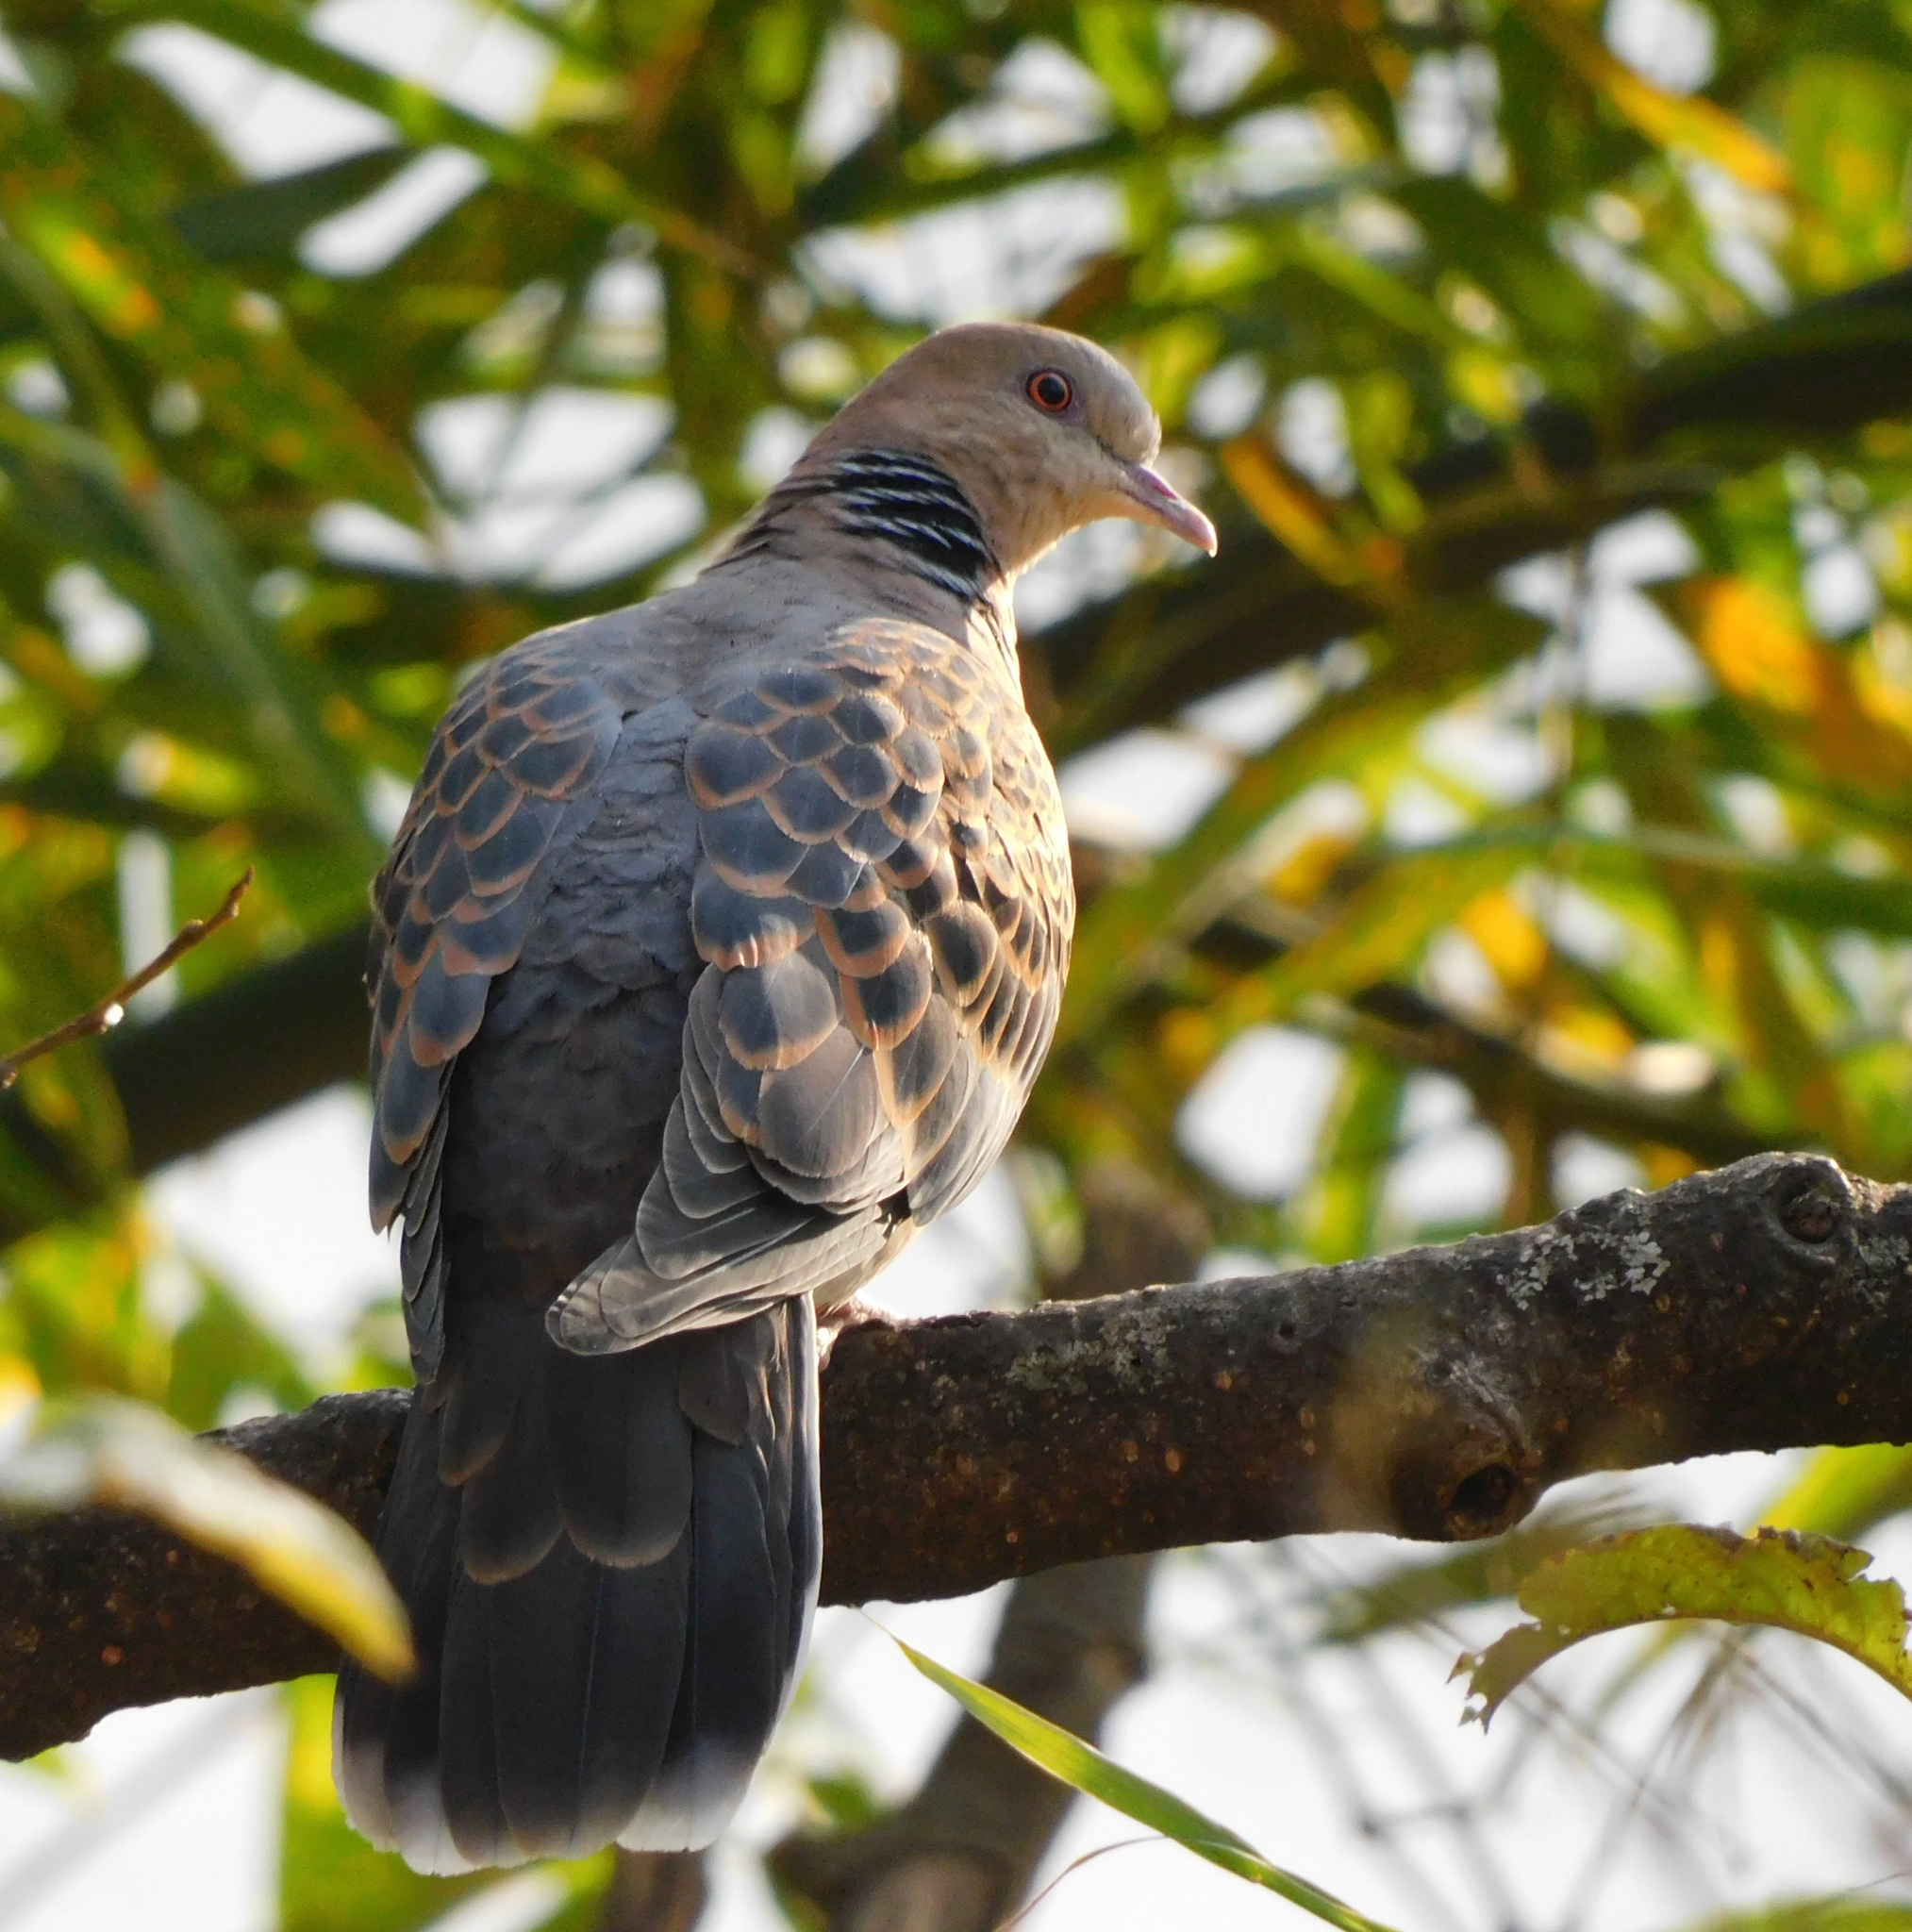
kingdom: Animalia
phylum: Chordata
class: Aves
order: Columbiformes
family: Columbidae
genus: Streptopelia
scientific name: Streptopelia orientalis
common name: Oriental turtle dove
